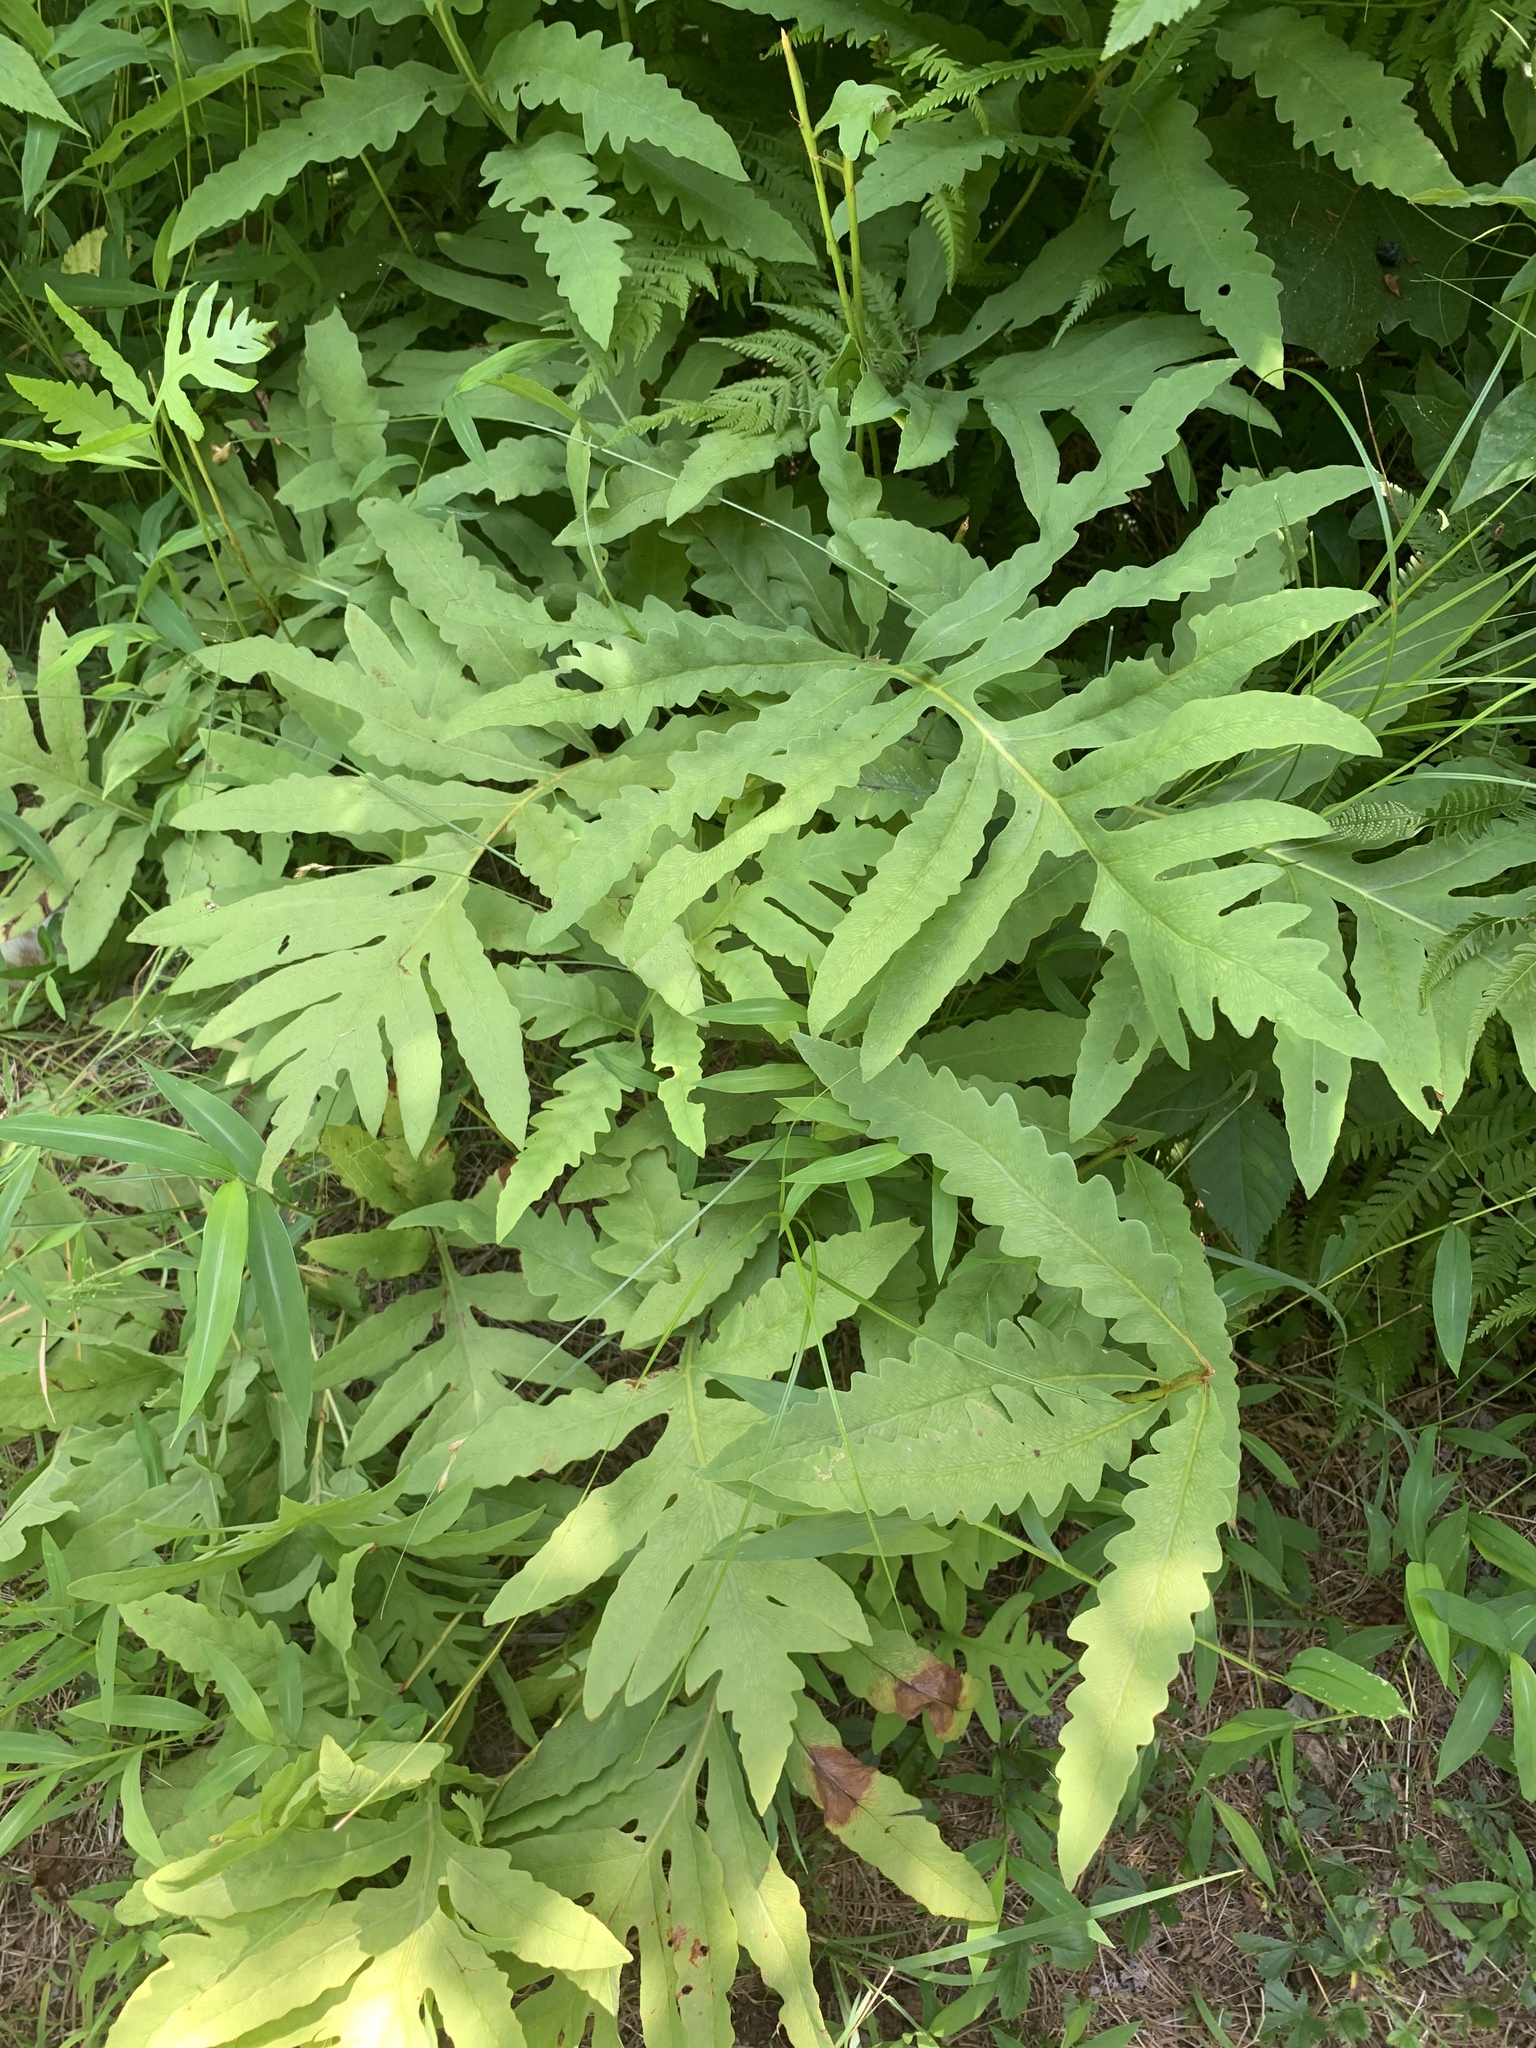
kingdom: Plantae
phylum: Tracheophyta
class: Polypodiopsida
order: Polypodiales
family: Onocleaceae
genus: Onoclea
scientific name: Onoclea sensibilis
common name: Sensitive fern
